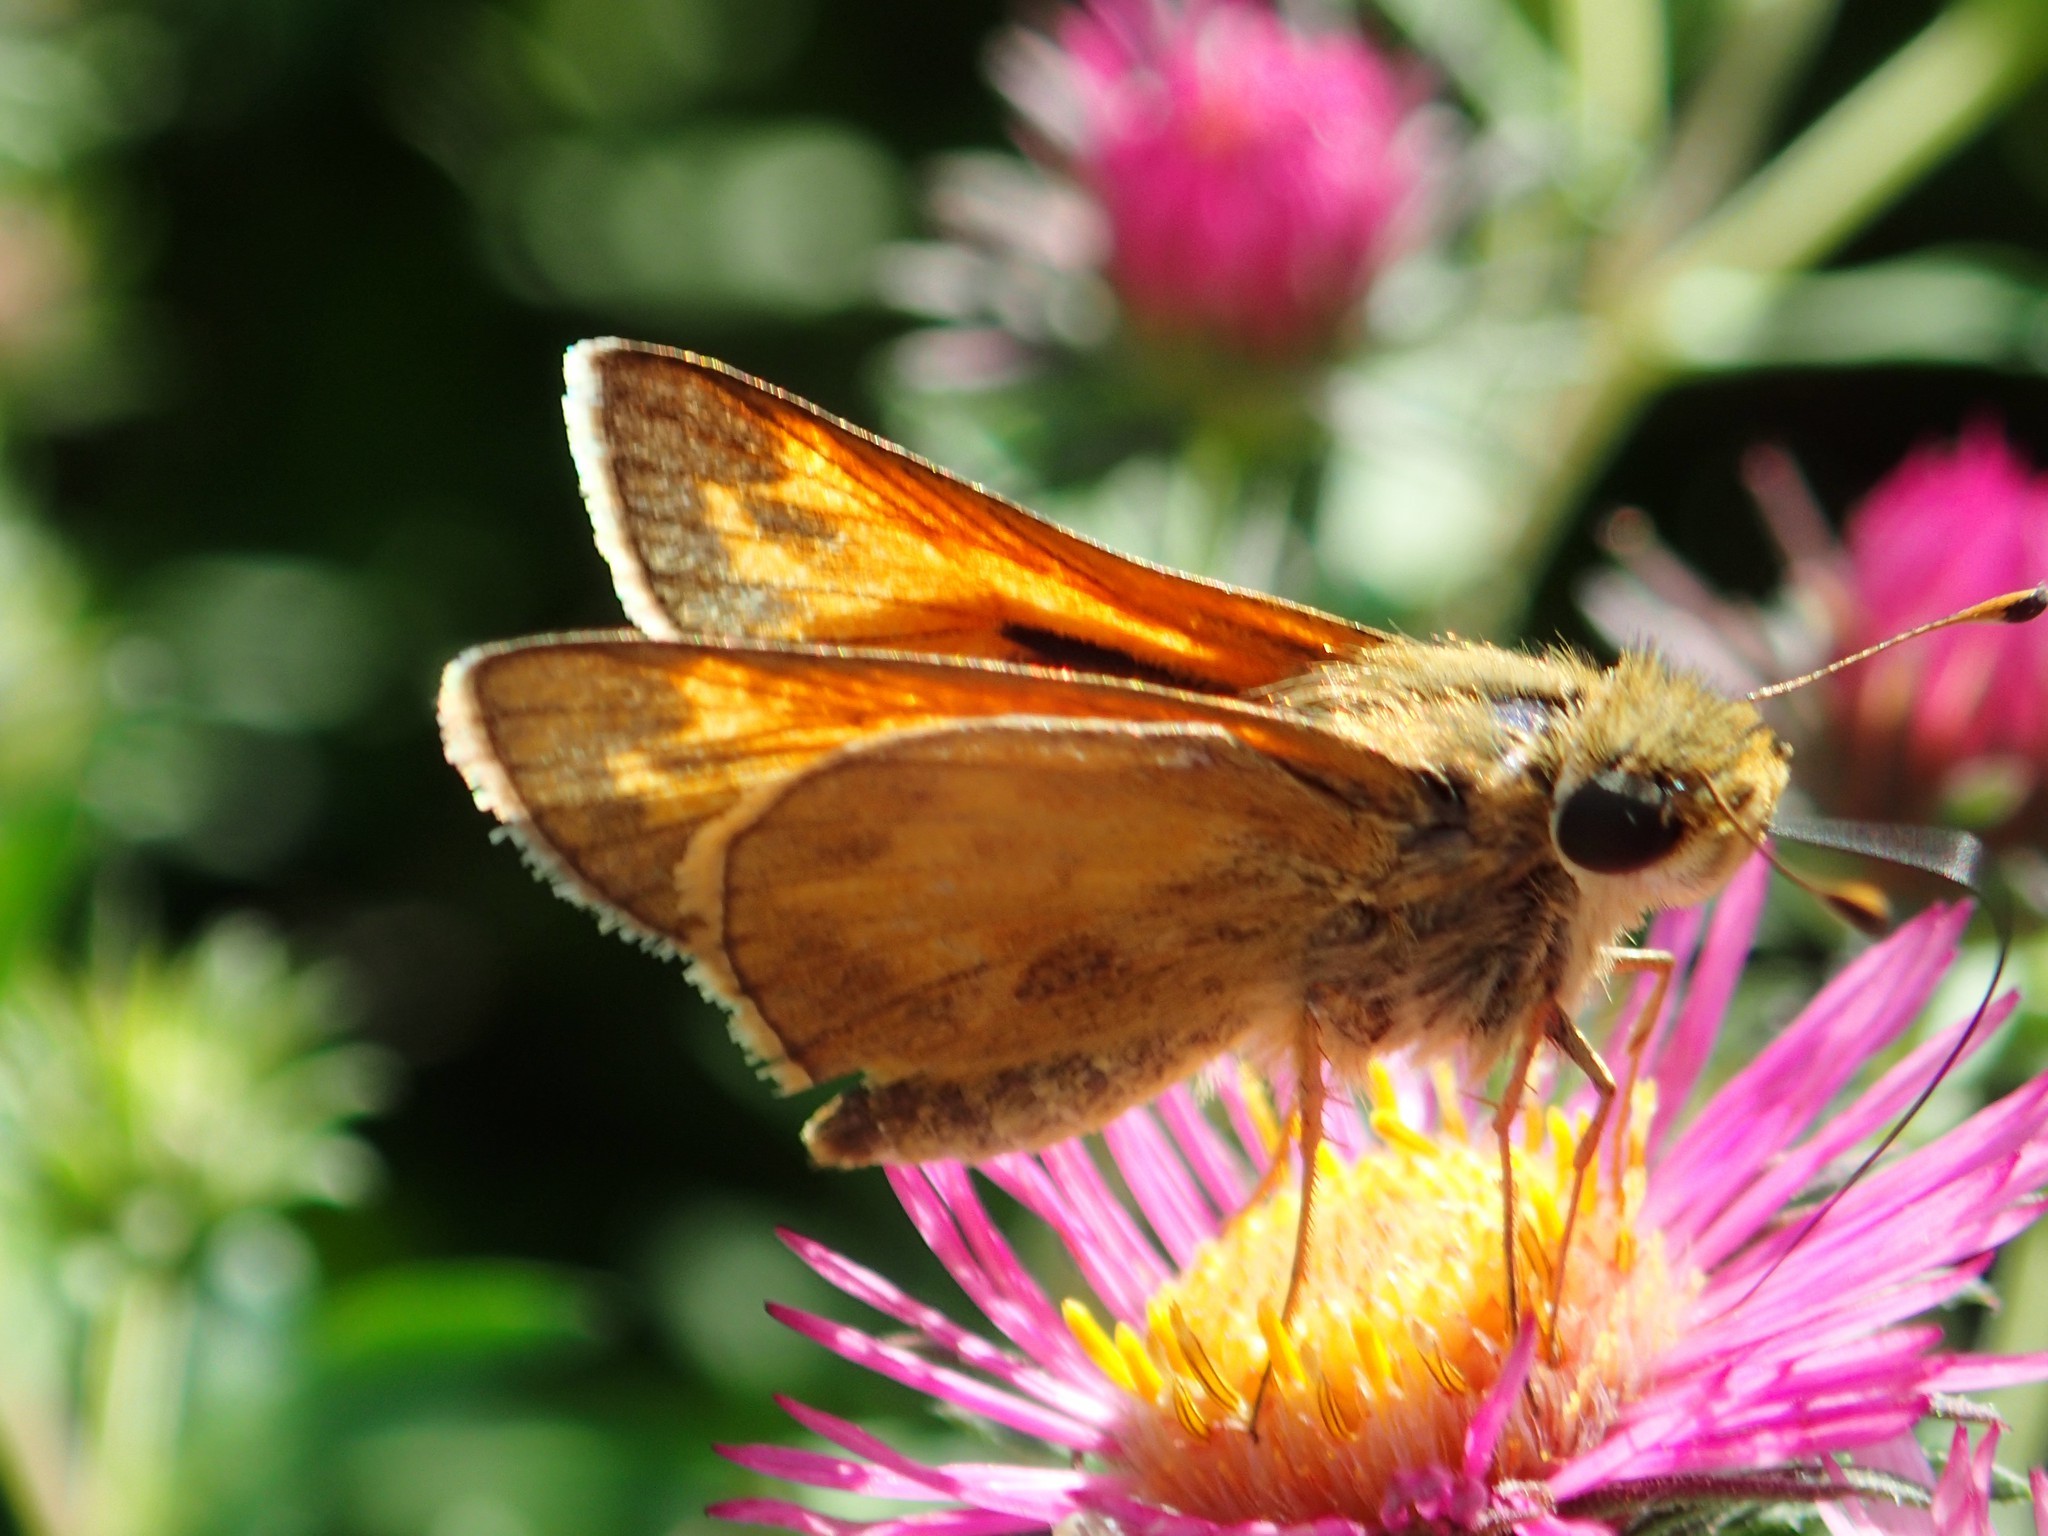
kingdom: Animalia
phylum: Arthropoda
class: Insecta
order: Lepidoptera
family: Hesperiidae
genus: Atalopedes
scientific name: Atalopedes
